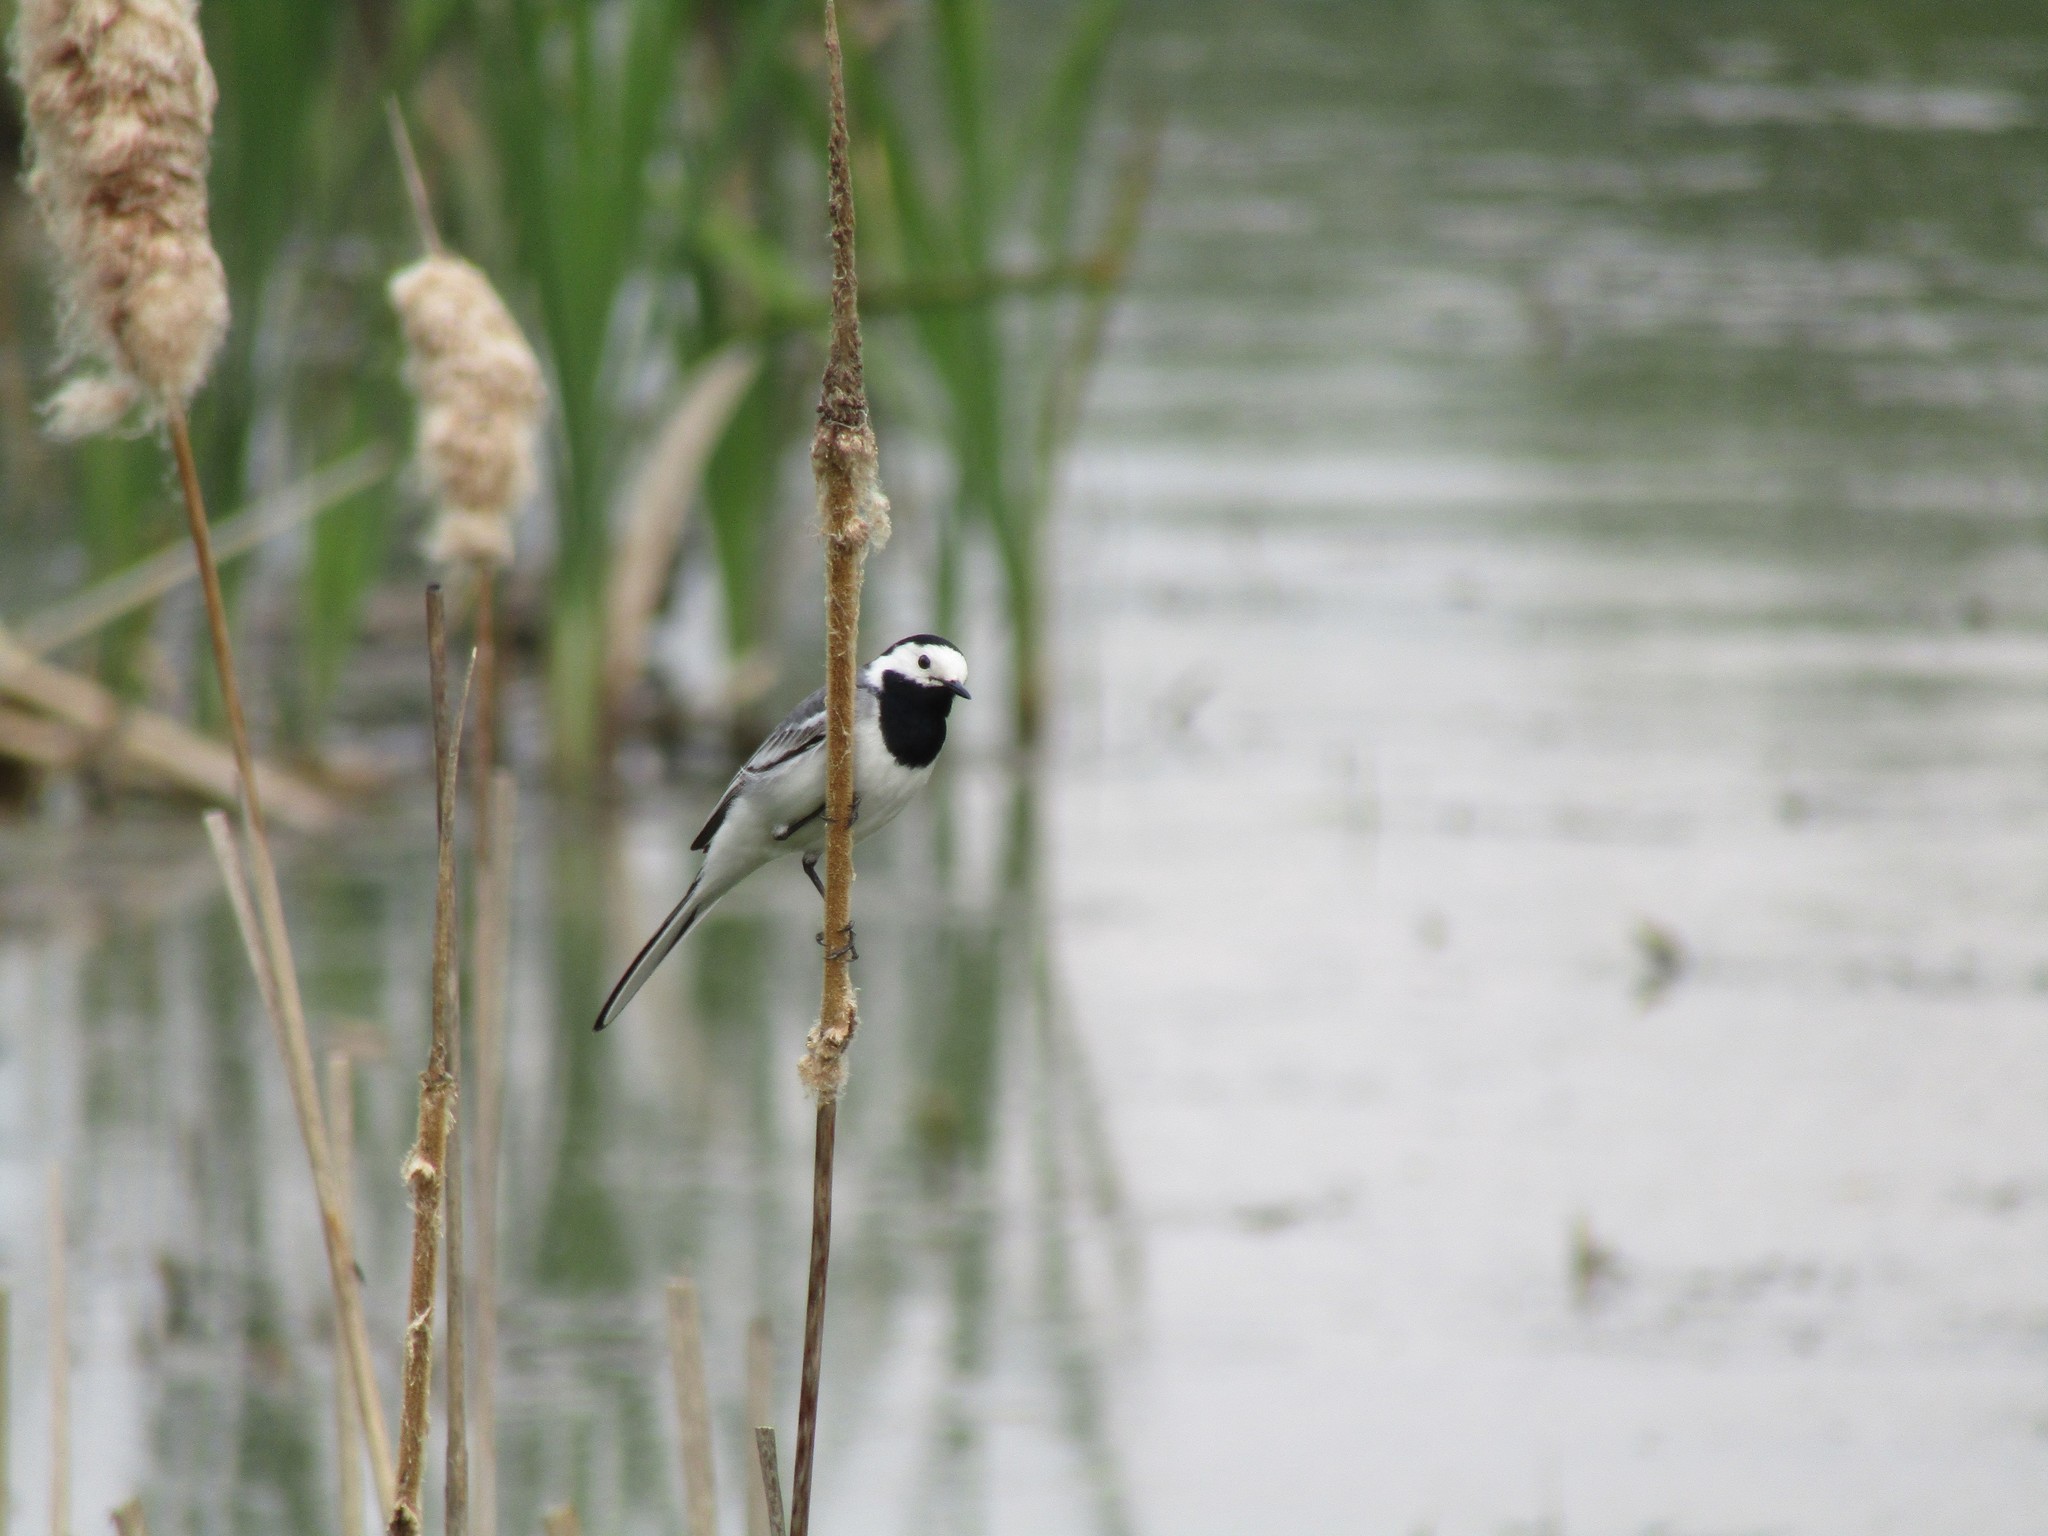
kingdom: Animalia
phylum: Chordata
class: Aves
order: Passeriformes
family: Motacillidae
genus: Motacilla
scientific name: Motacilla alba
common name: White wagtail
